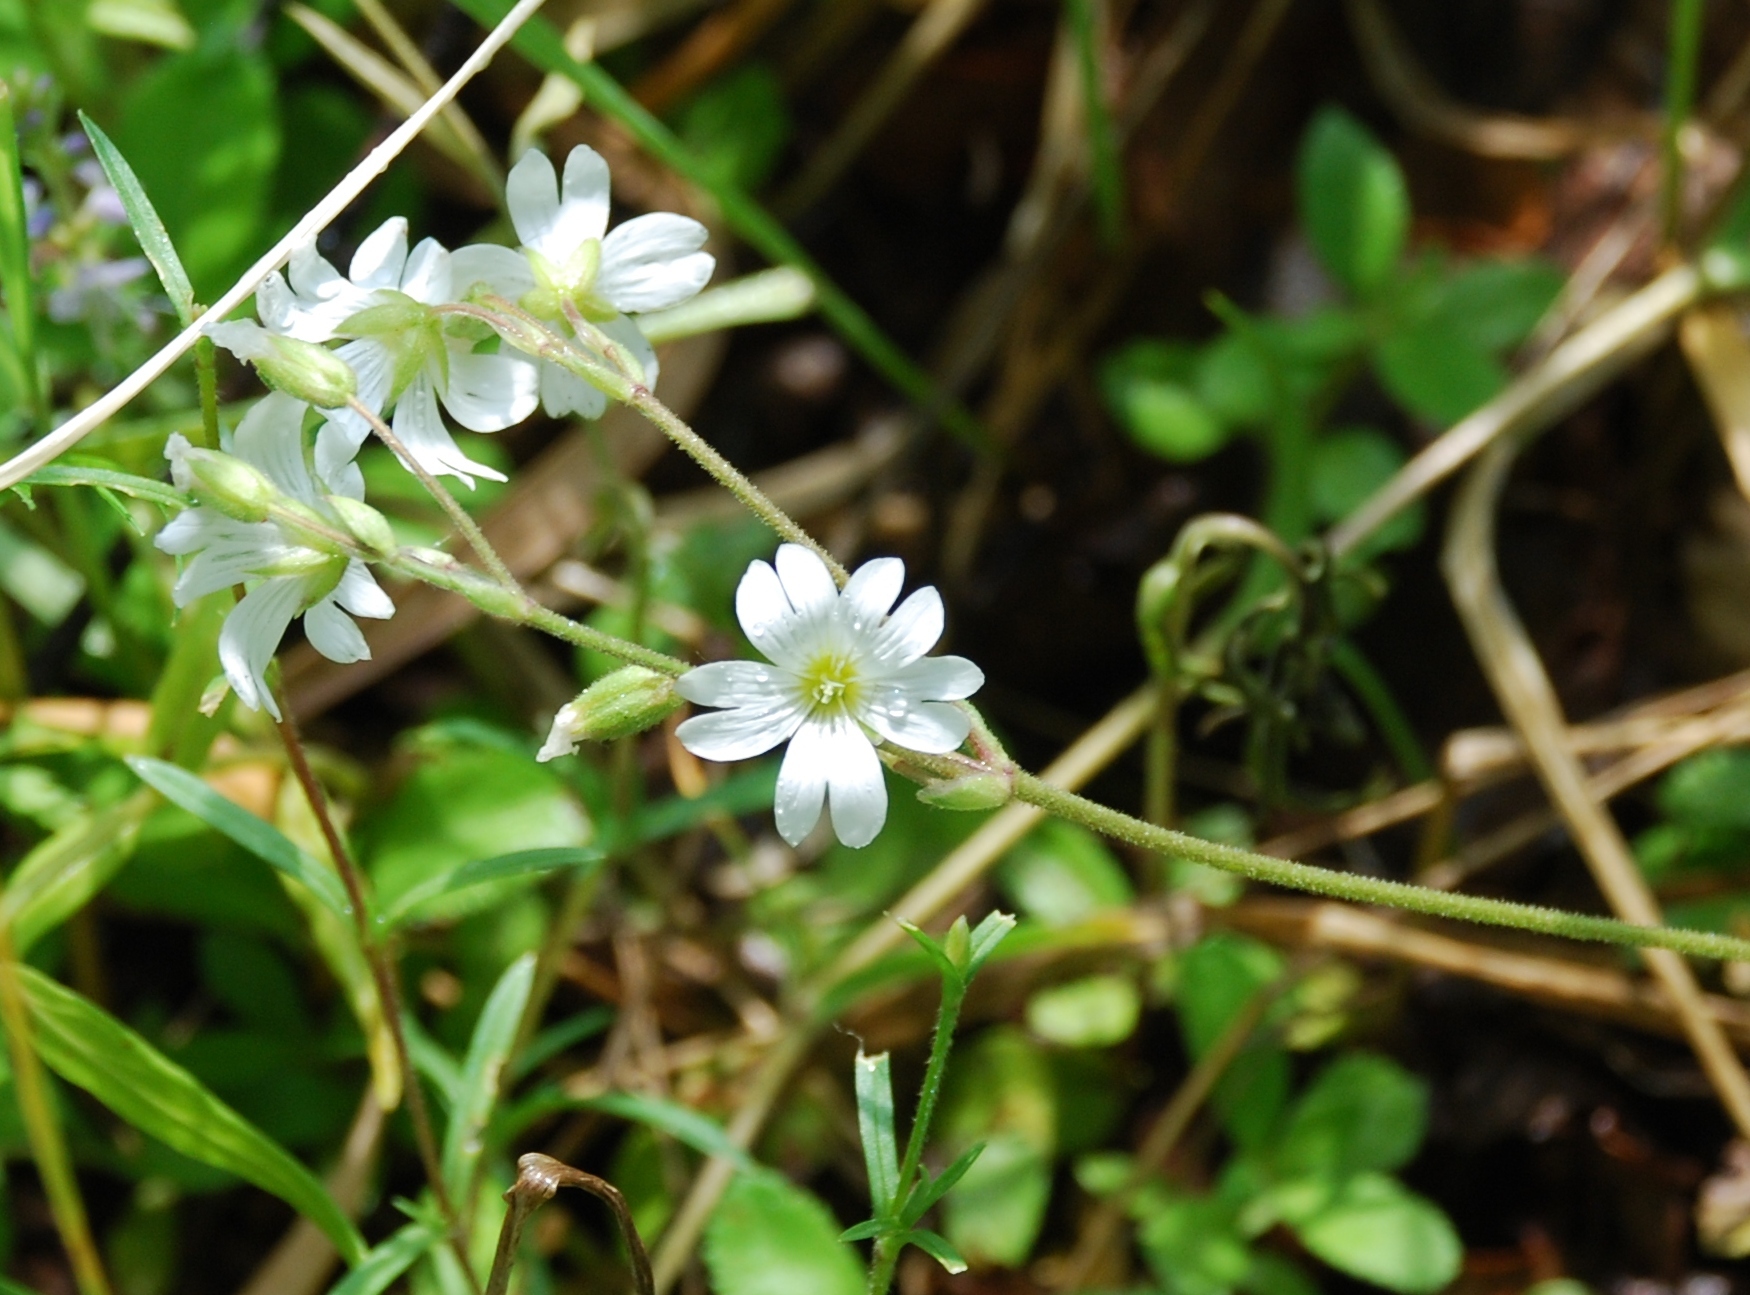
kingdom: Plantae
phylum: Tracheophyta
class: Magnoliopsida
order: Caryophyllales
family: Caryophyllaceae
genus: Cerastium
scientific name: Cerastium arvense
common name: Field mouse-ear
